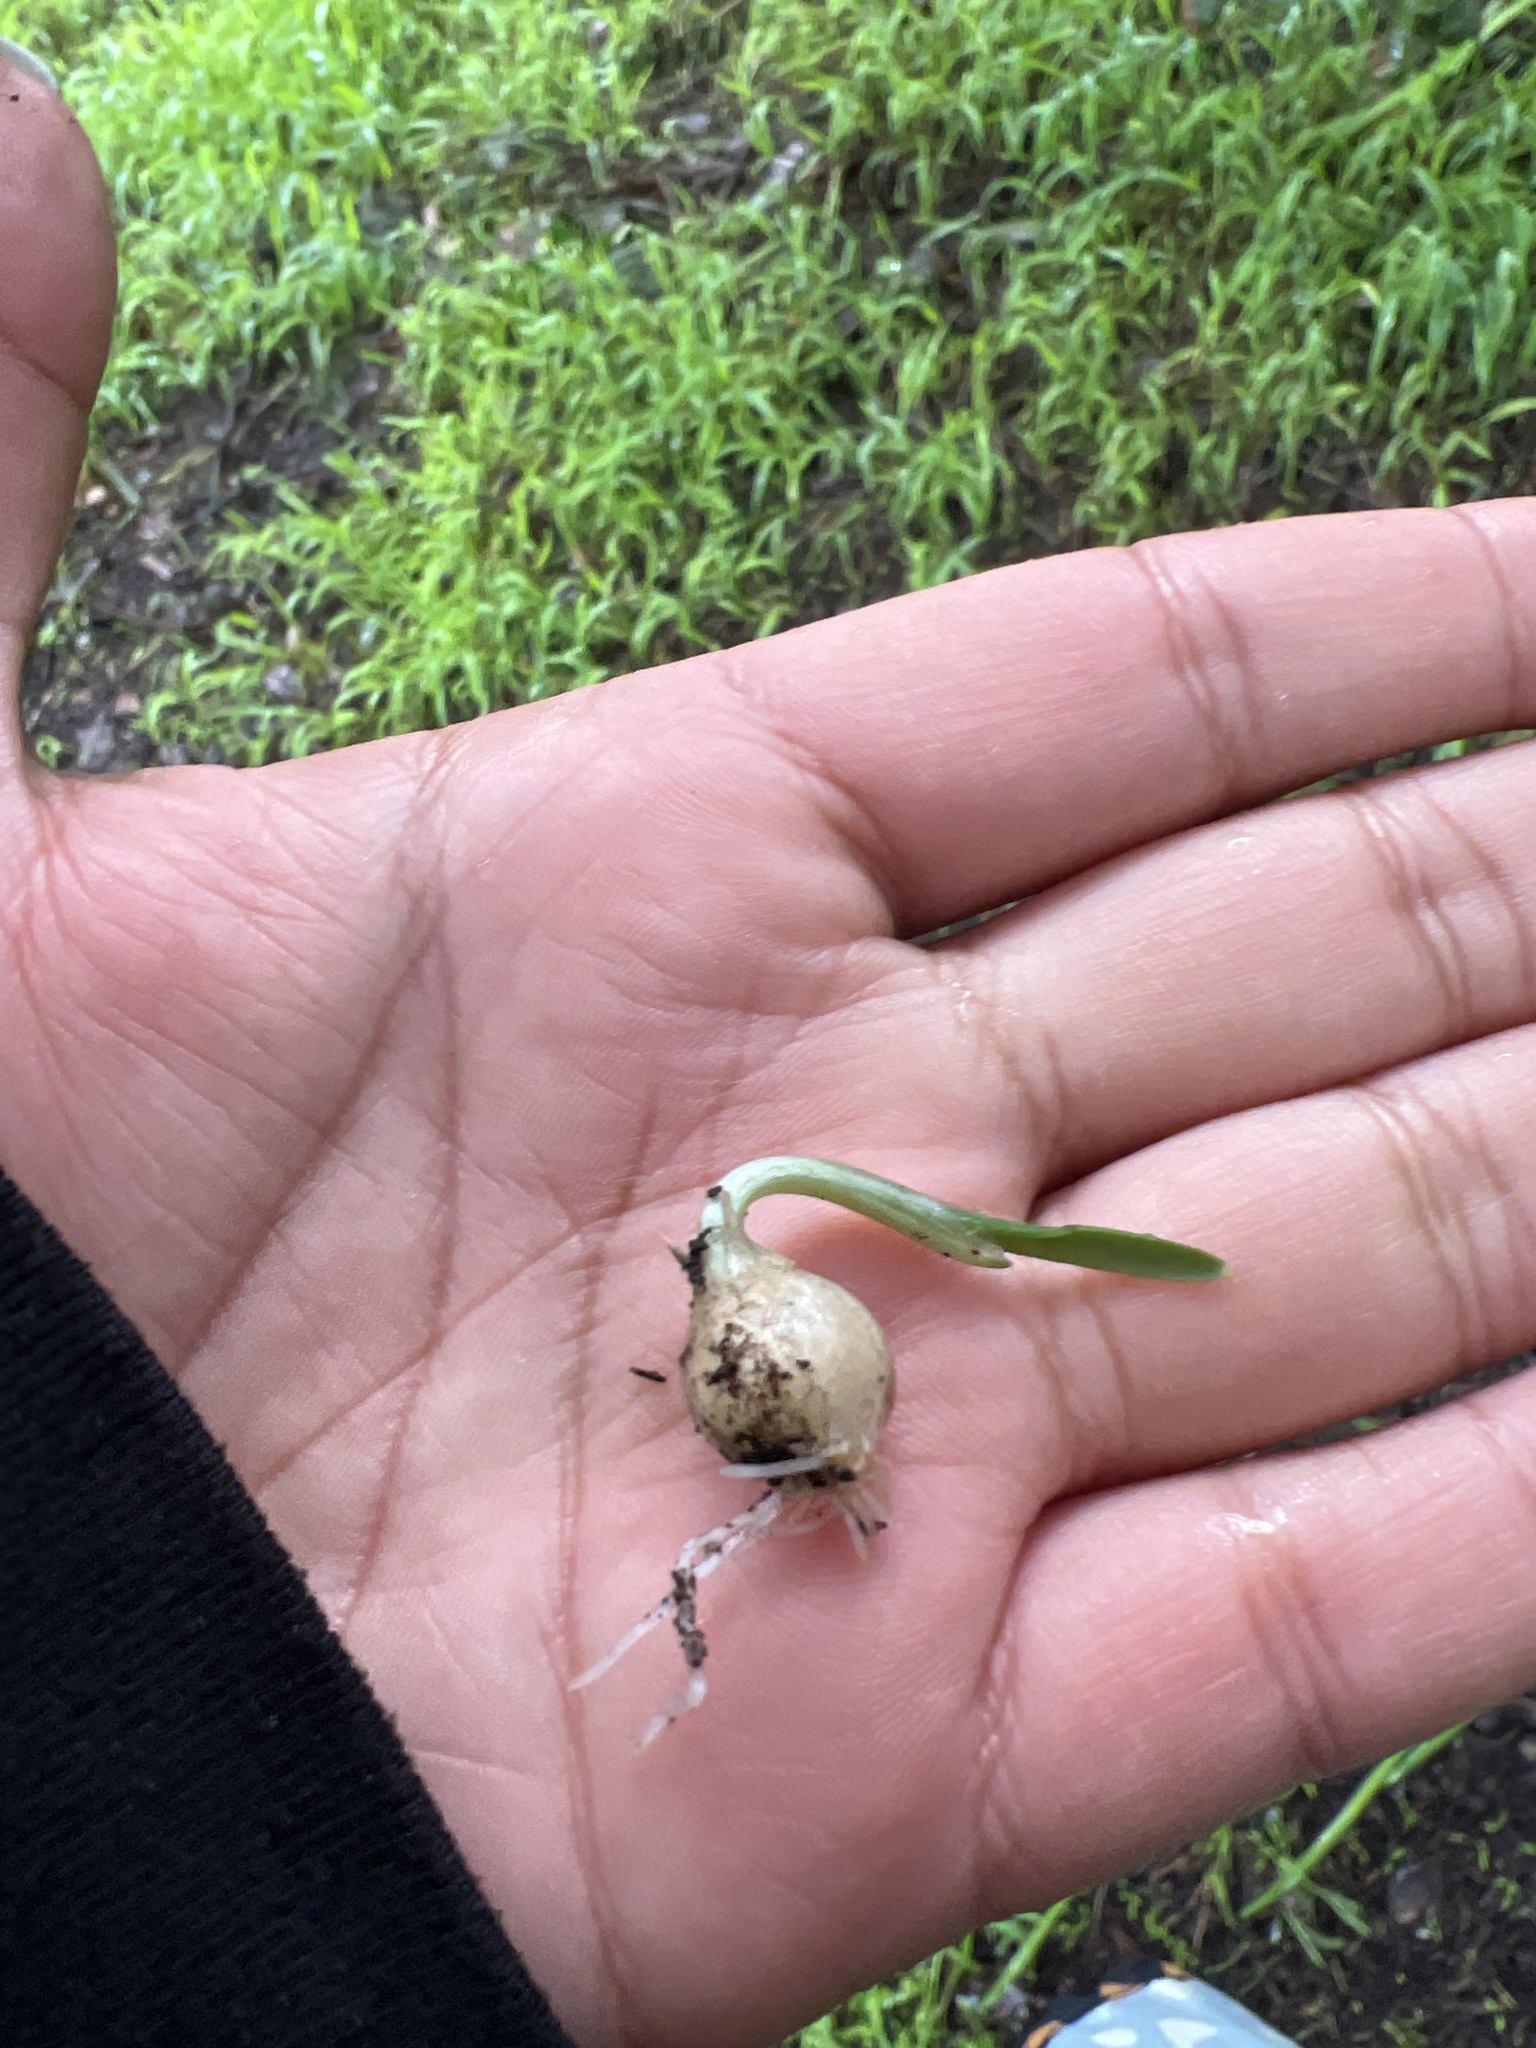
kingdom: Plantae
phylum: Tracheophyta
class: Liliopsida
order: Asparagales
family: Amaryllidaceae
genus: Allium
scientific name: Allium triquetrum
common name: Three-cornered garlic
